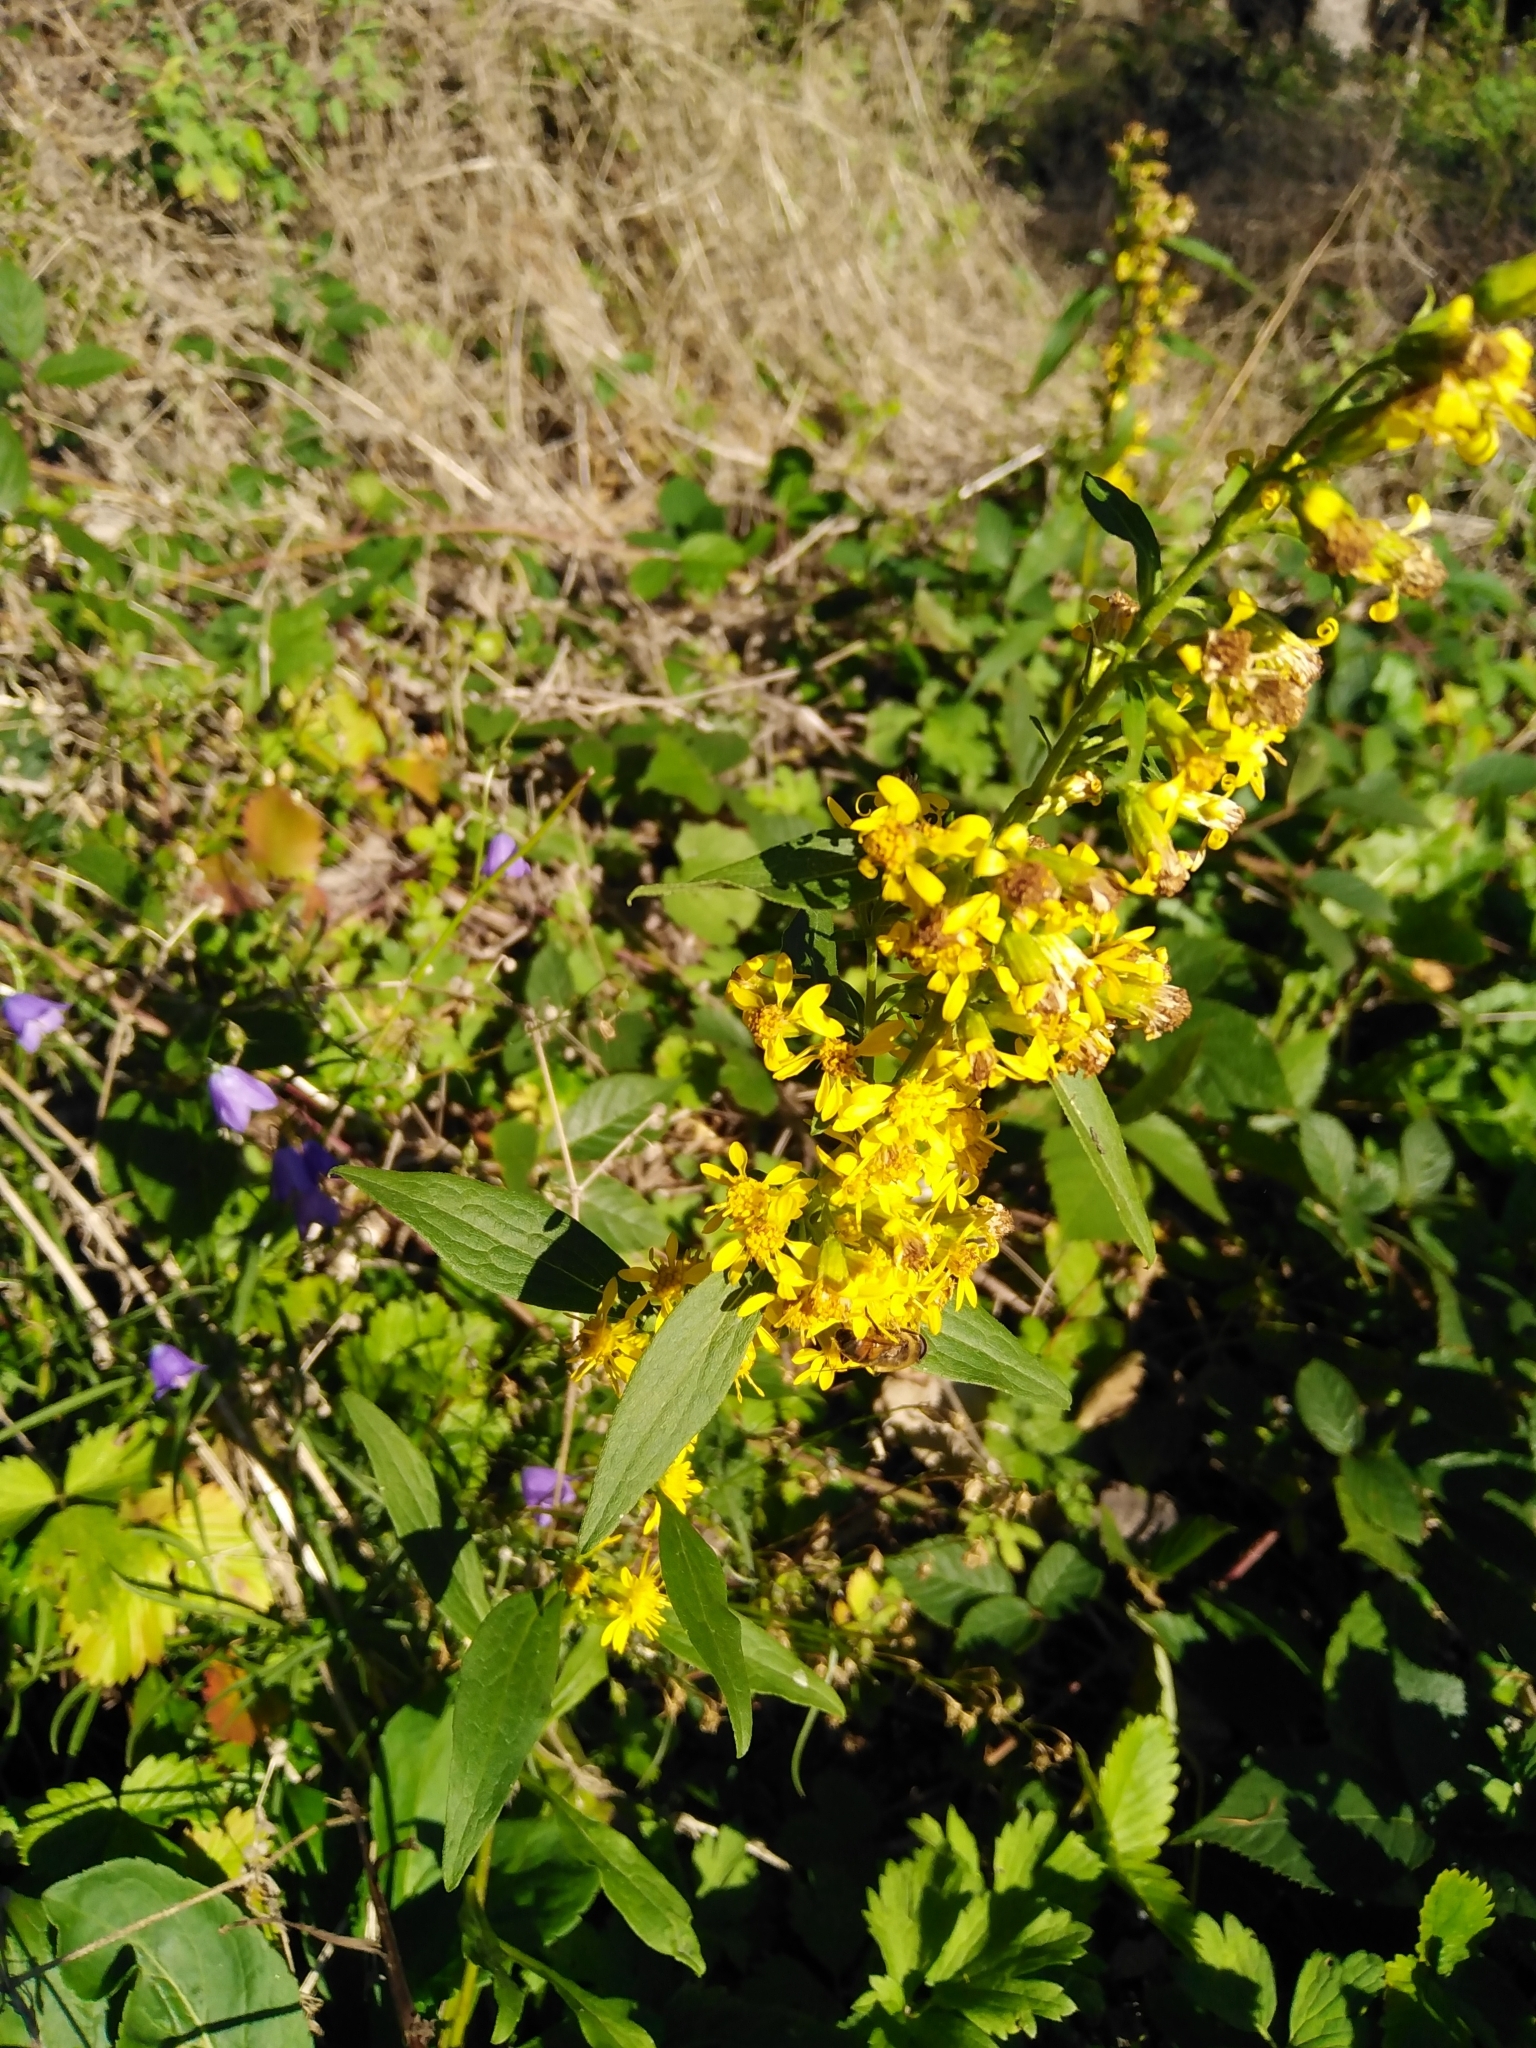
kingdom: Plantae
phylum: Tracheophyta
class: Magnoliopsida
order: Asterales
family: Asteraceae
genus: Solidago
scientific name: Solidago virgaurea
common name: Goldenrod
